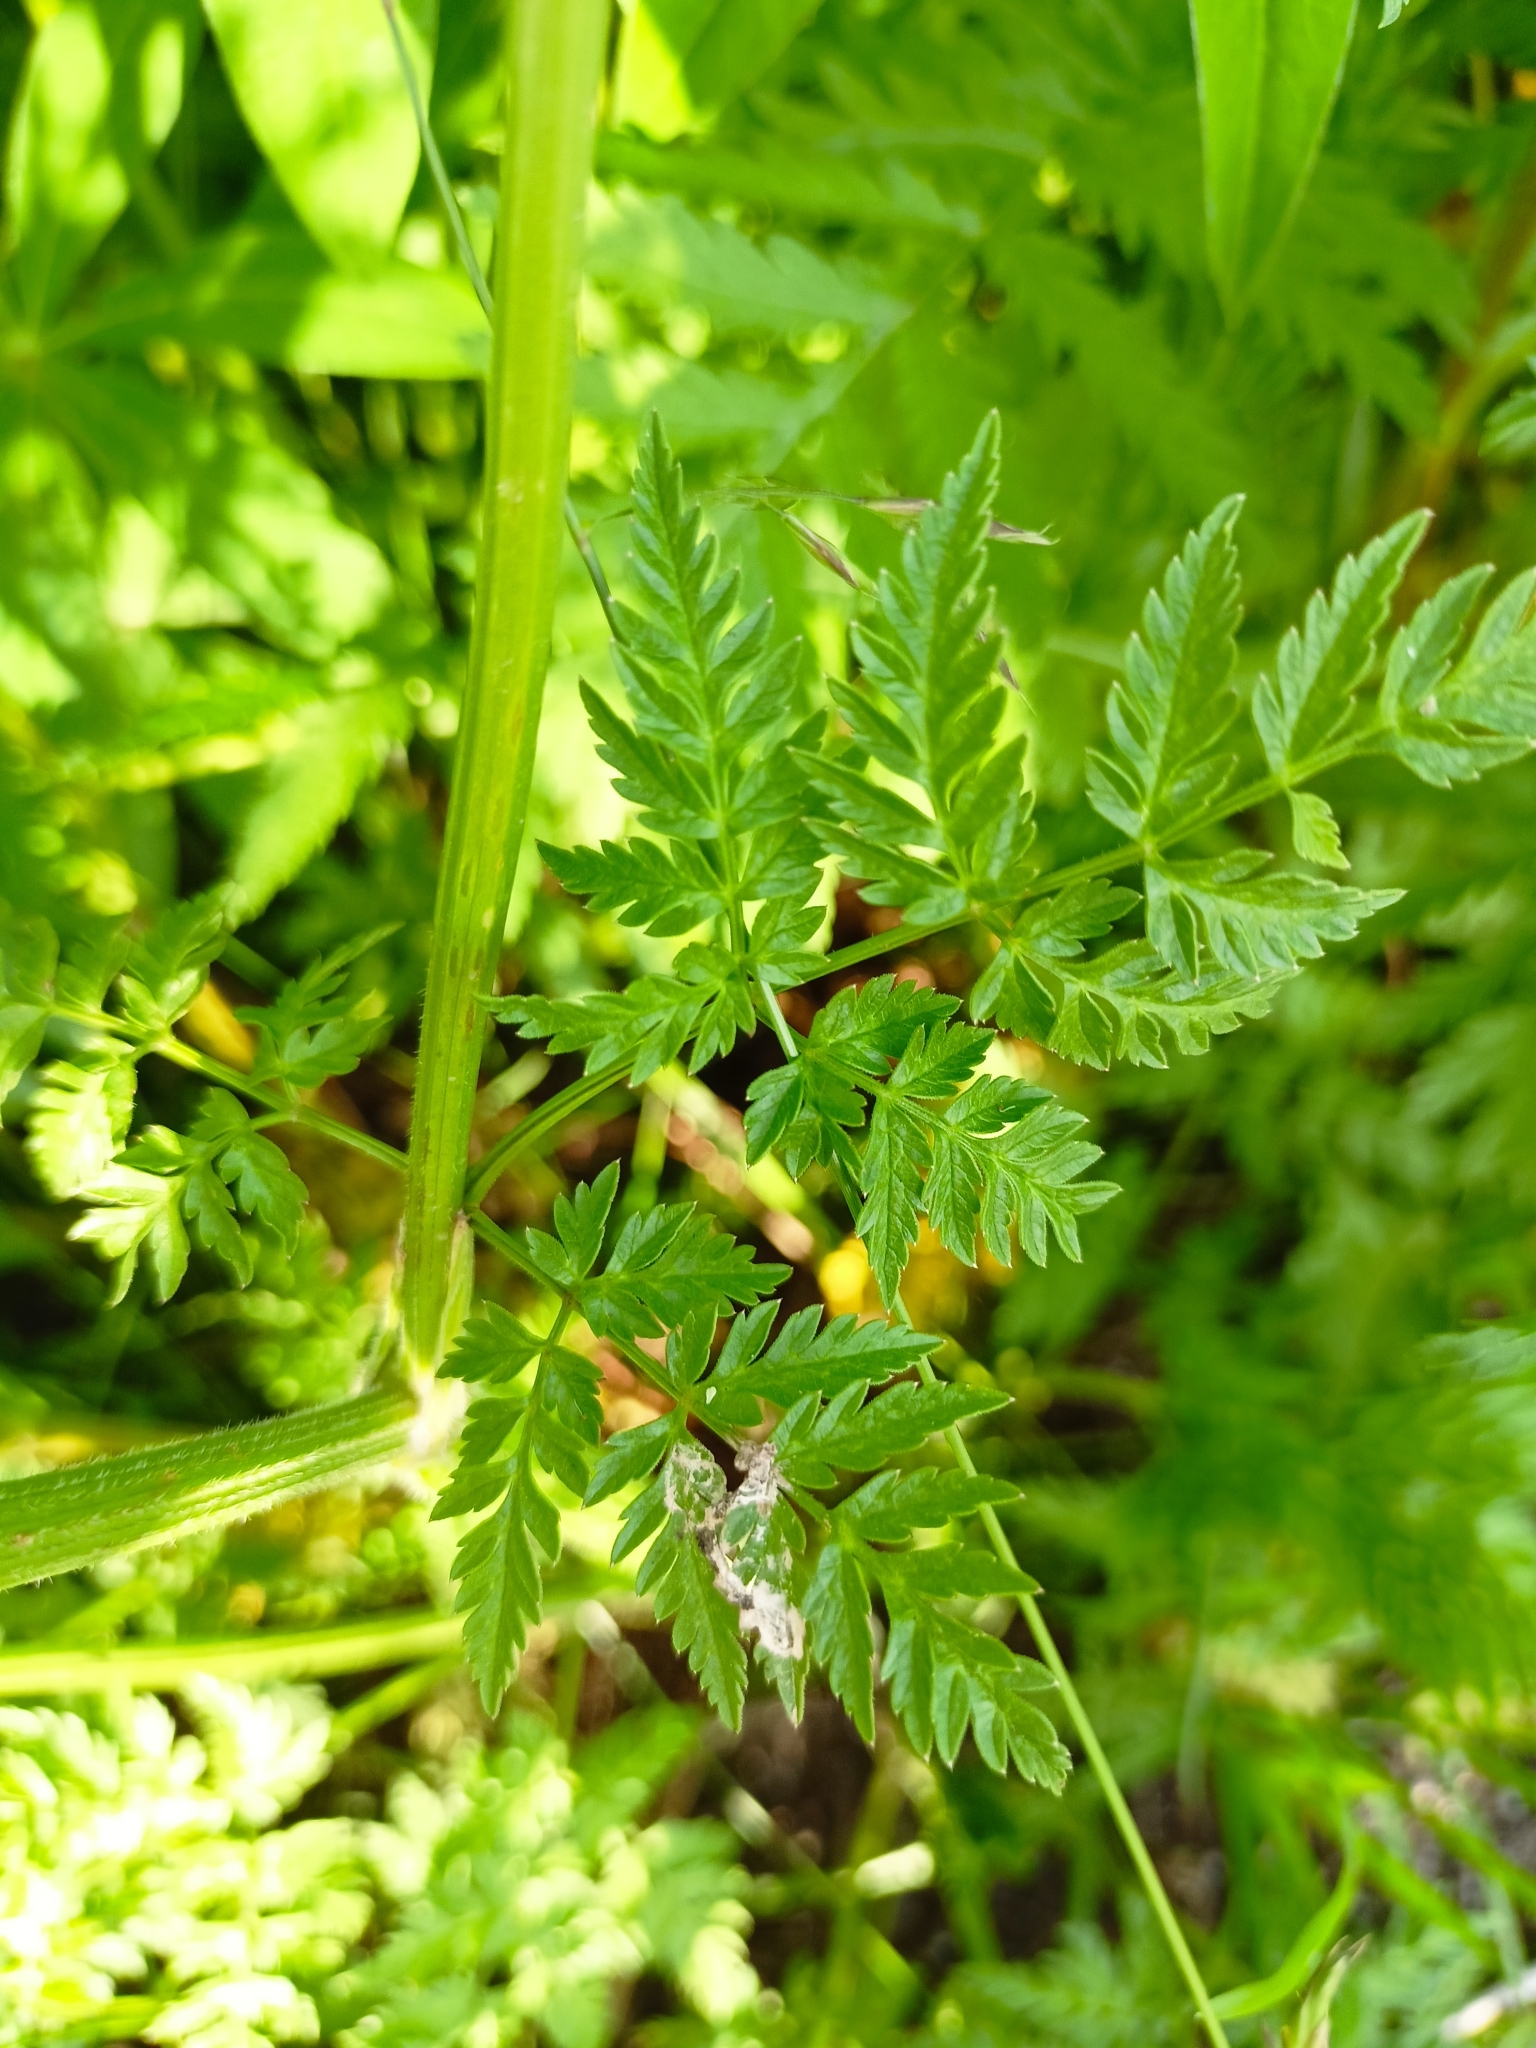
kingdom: Plantae
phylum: Tracheophyta
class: Magnoliopsida
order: Apiales
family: Apiaceae
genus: Anthriscus
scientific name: Anthriscus sylvestris
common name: Cow parsley
